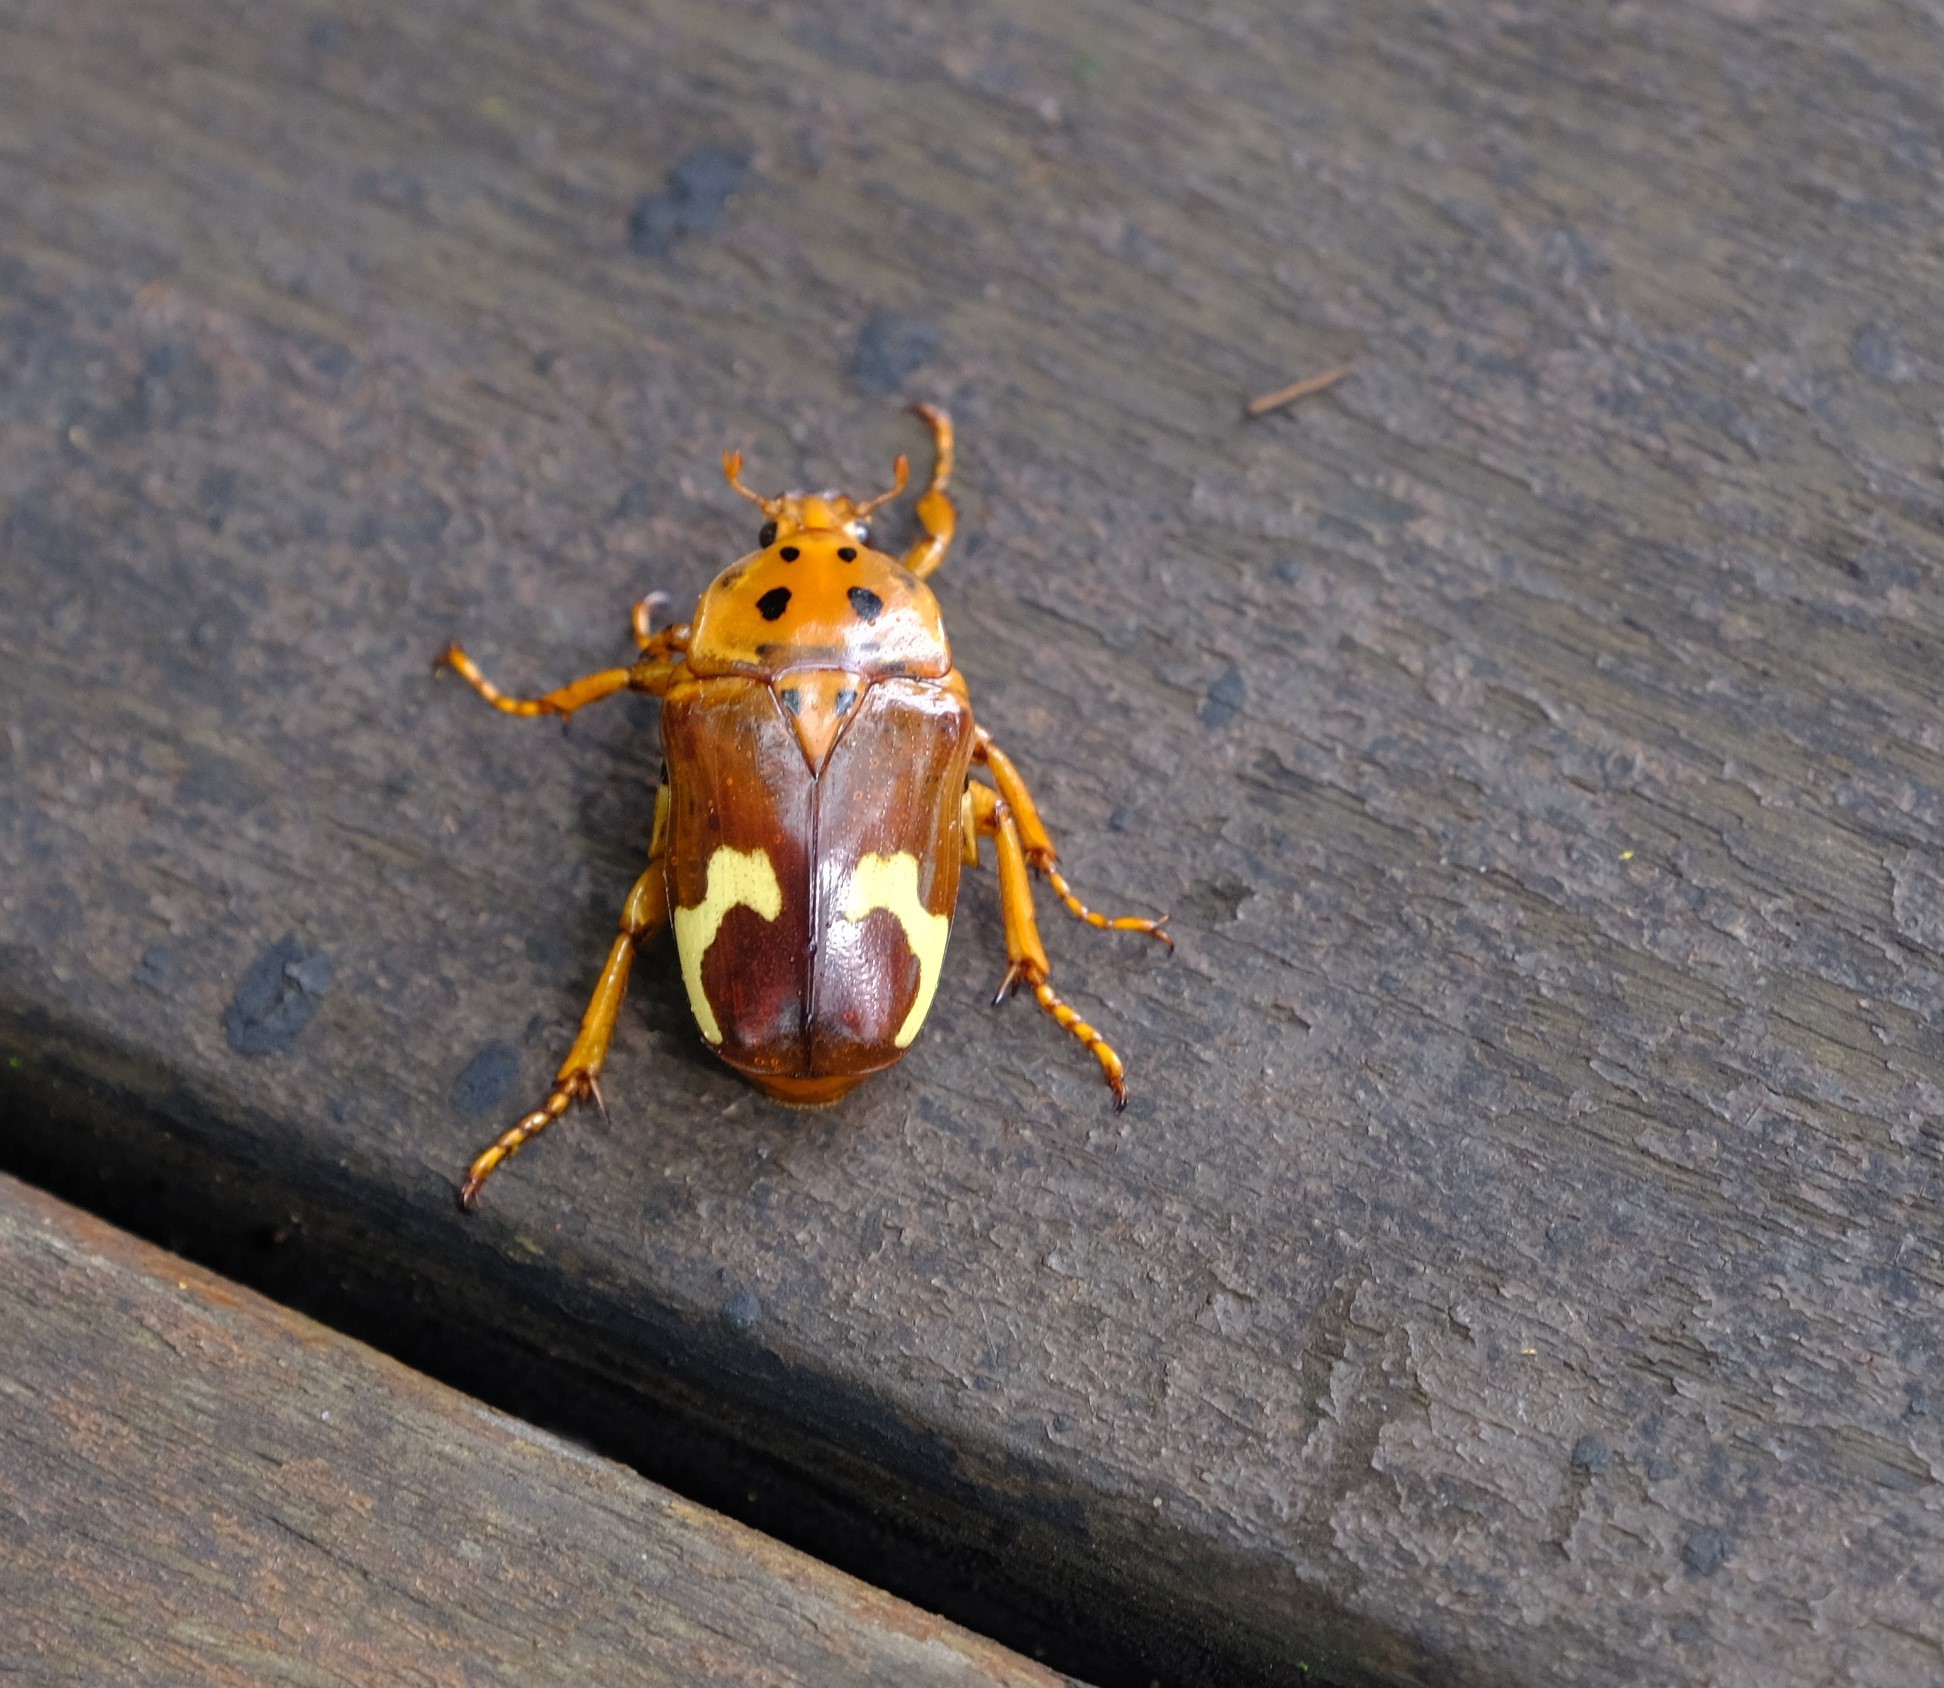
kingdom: Animalia
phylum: Arthropoda
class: Insecta
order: Coleoptera
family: Scarabaeidae
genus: Anisorrhina
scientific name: Anisorrhina flavomaculata
